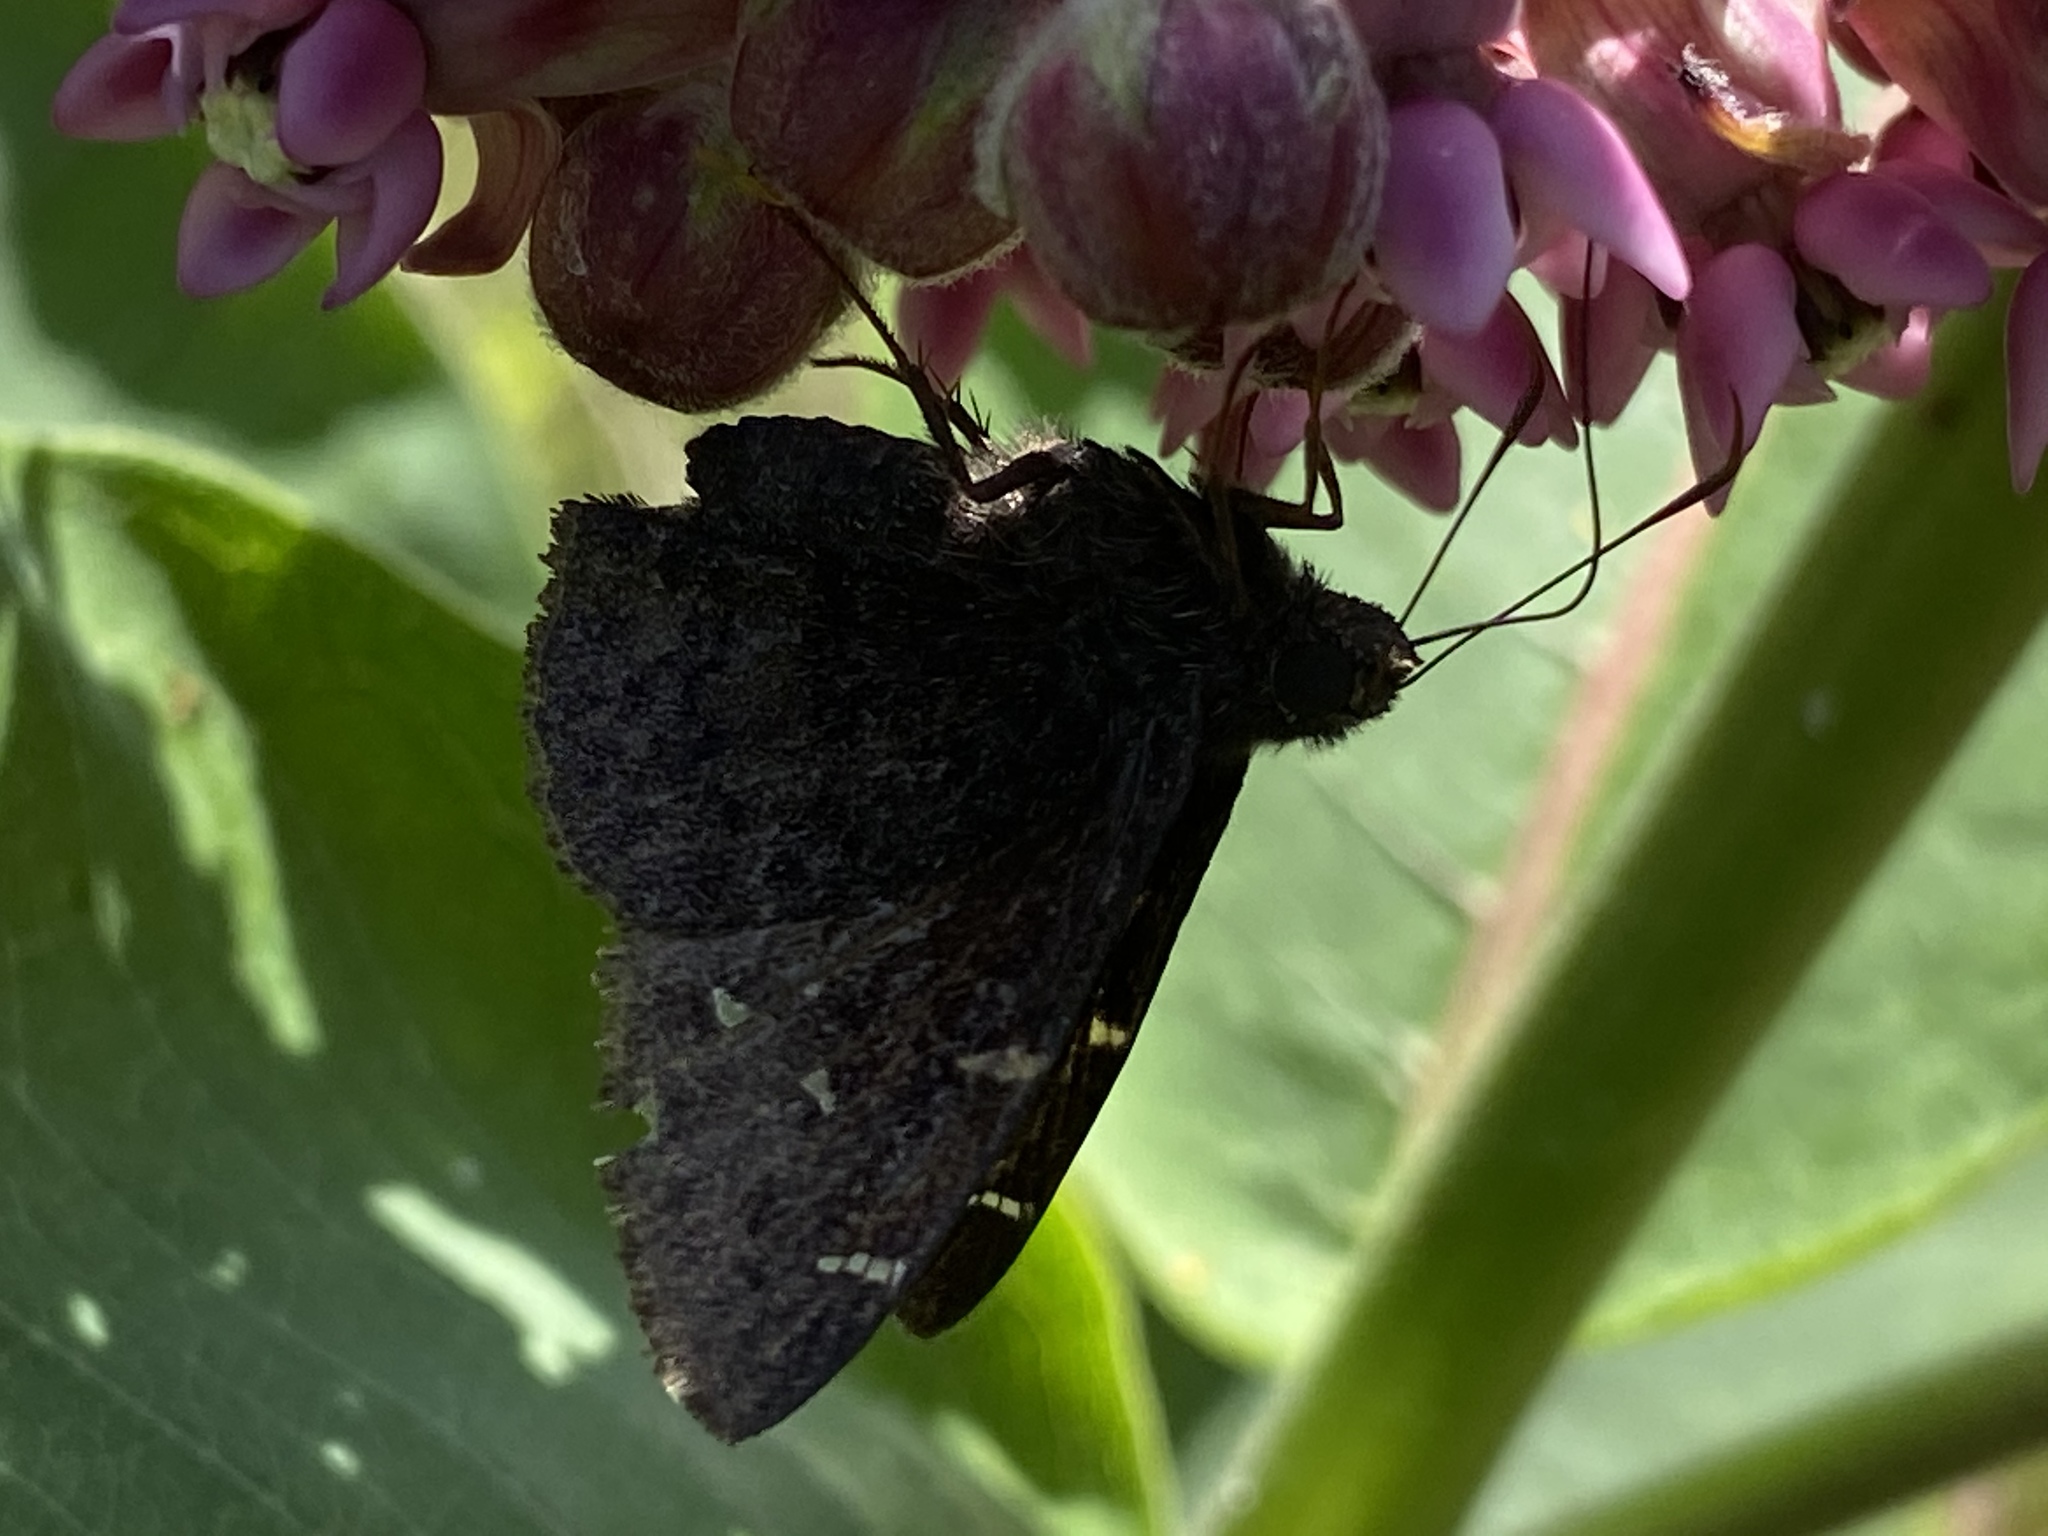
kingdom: Animalia
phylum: Arthropoda
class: Insecta
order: Lepidoptera
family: Hesperiidae
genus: Thorybes
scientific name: Thorybes pylades
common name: Northern cloudywing
